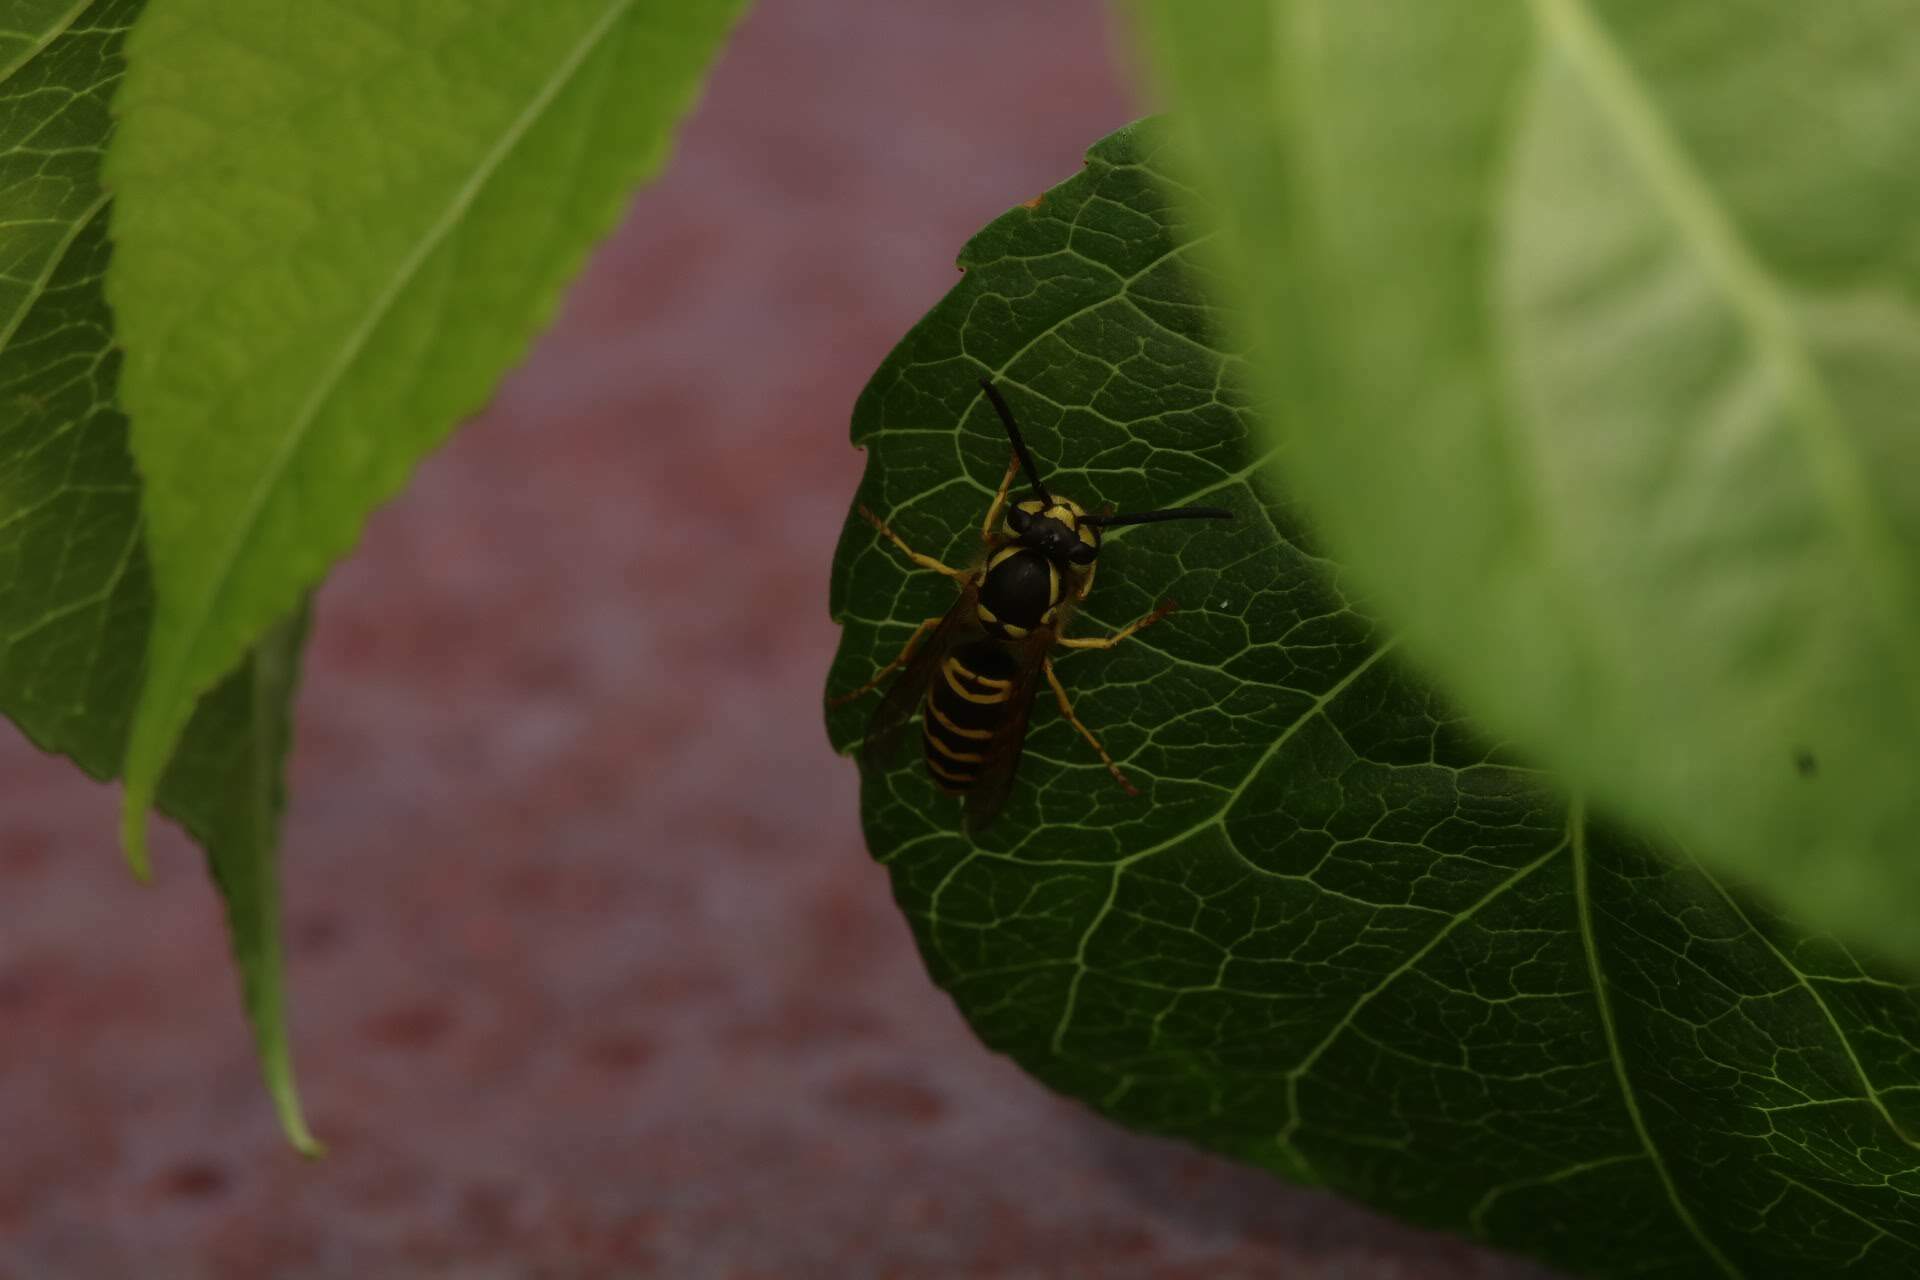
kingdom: Animalia
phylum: Arthropoda
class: Insecta
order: Hymenoptera
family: Vespidae
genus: Vespula
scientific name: Vespula maculifrons
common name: Eastern yellowjacket
